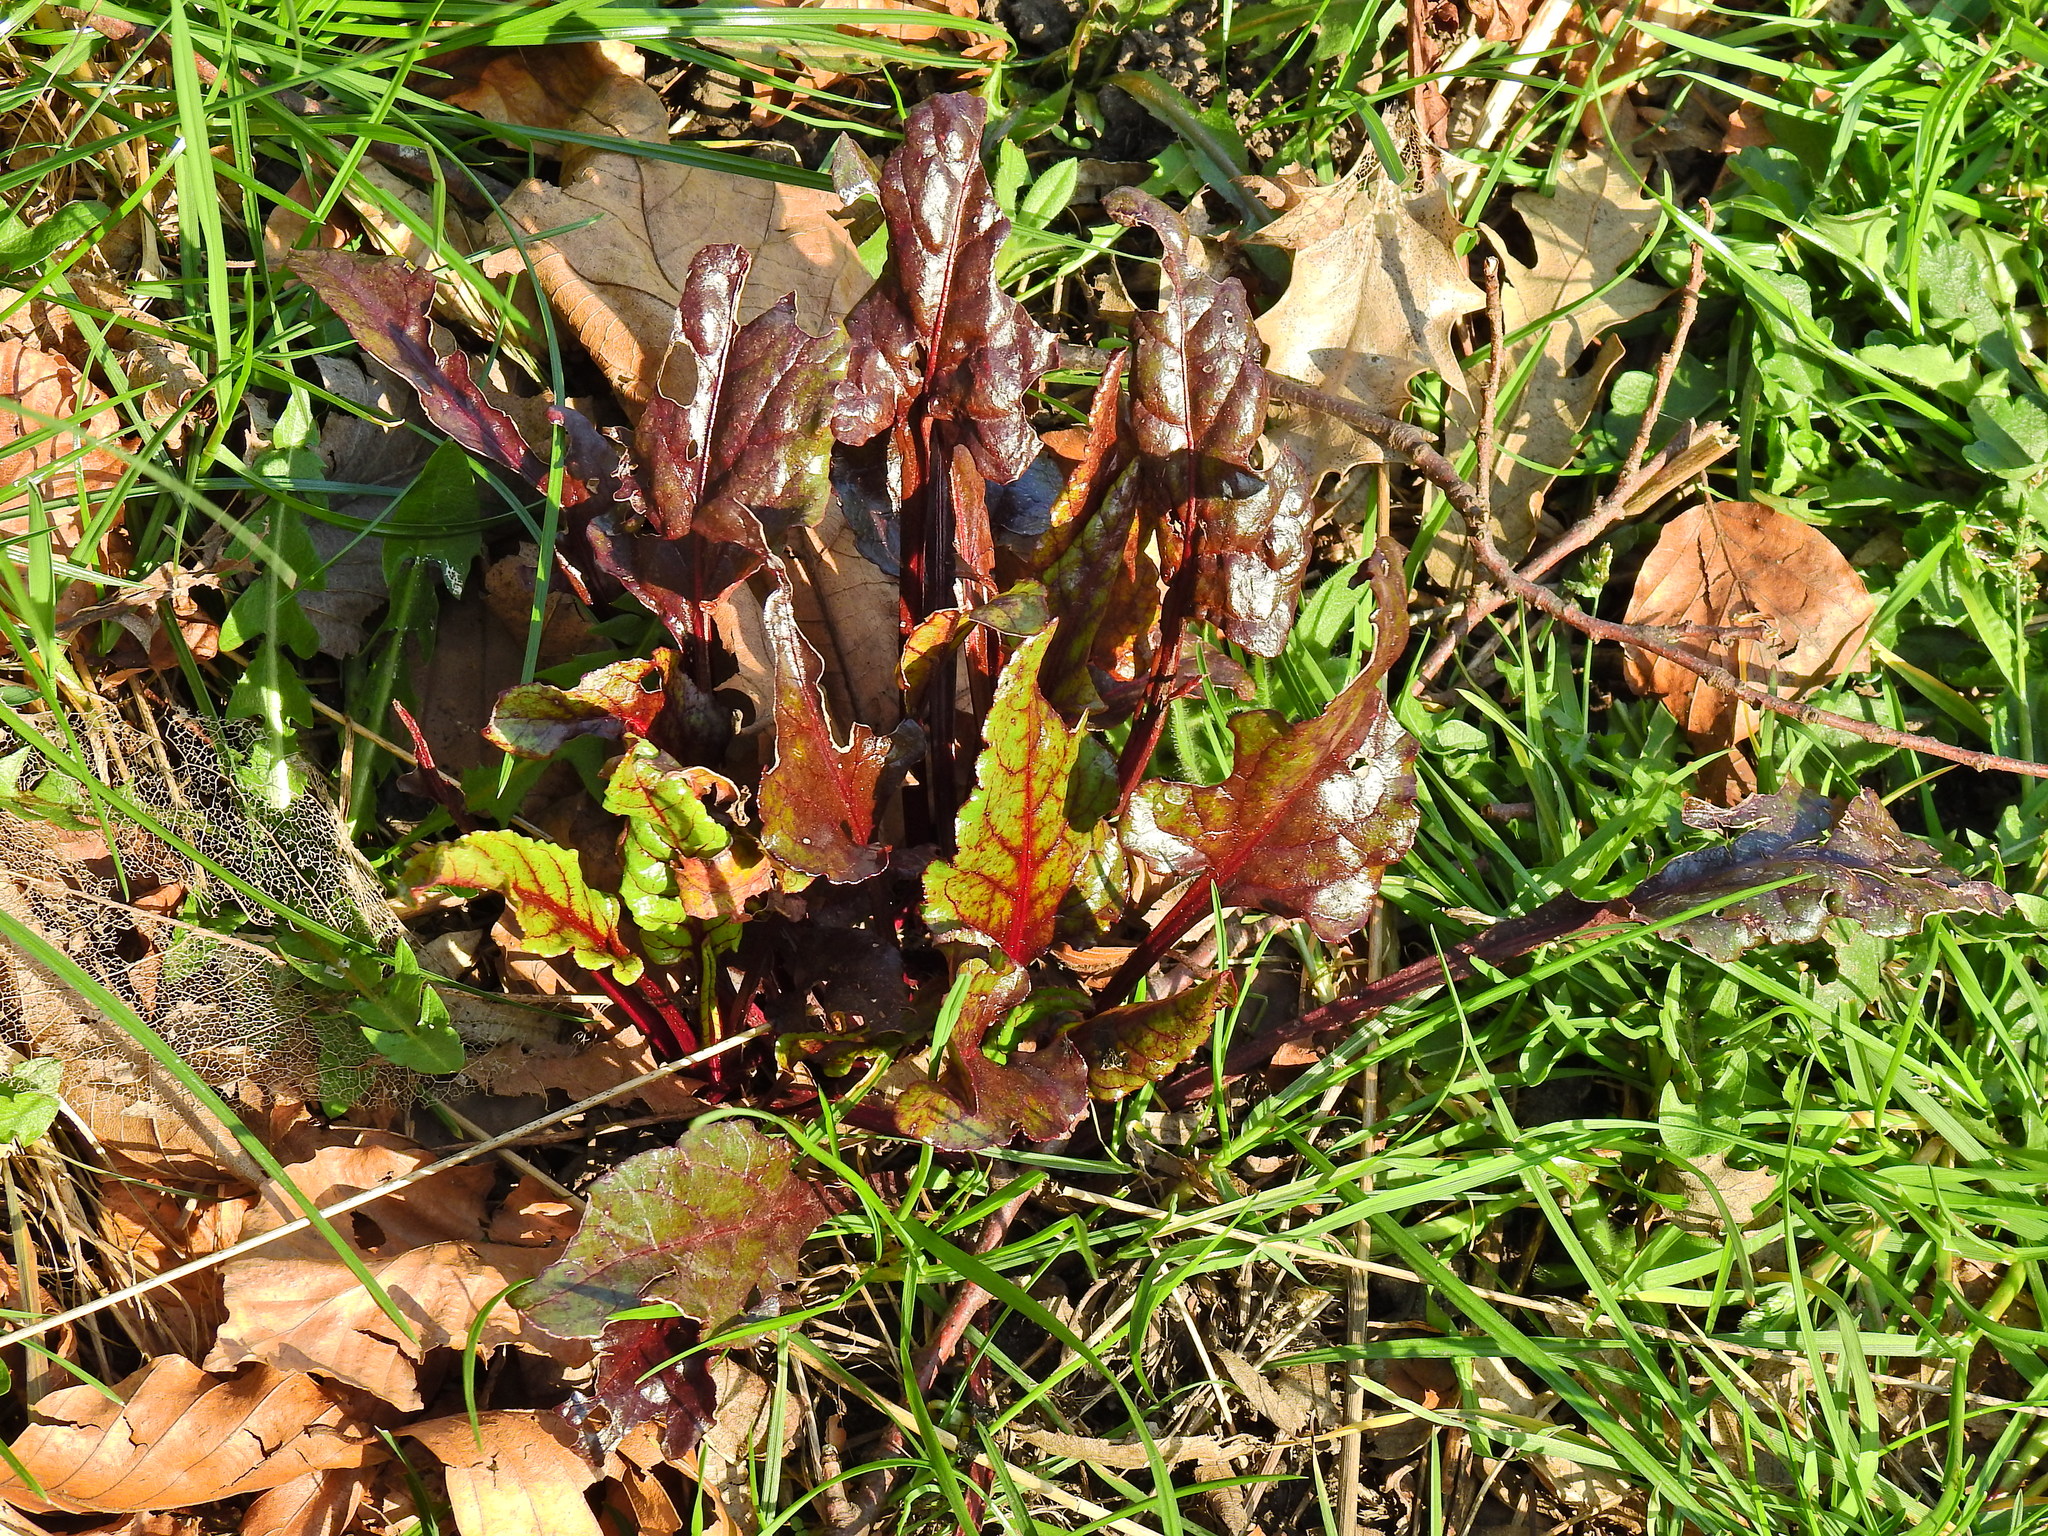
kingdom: Plantae
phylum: Tracheophyta
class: Magnoliopsida
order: Caryophyllales
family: Amaranthaceae
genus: Beta
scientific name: Beta vulgaris
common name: Beet
